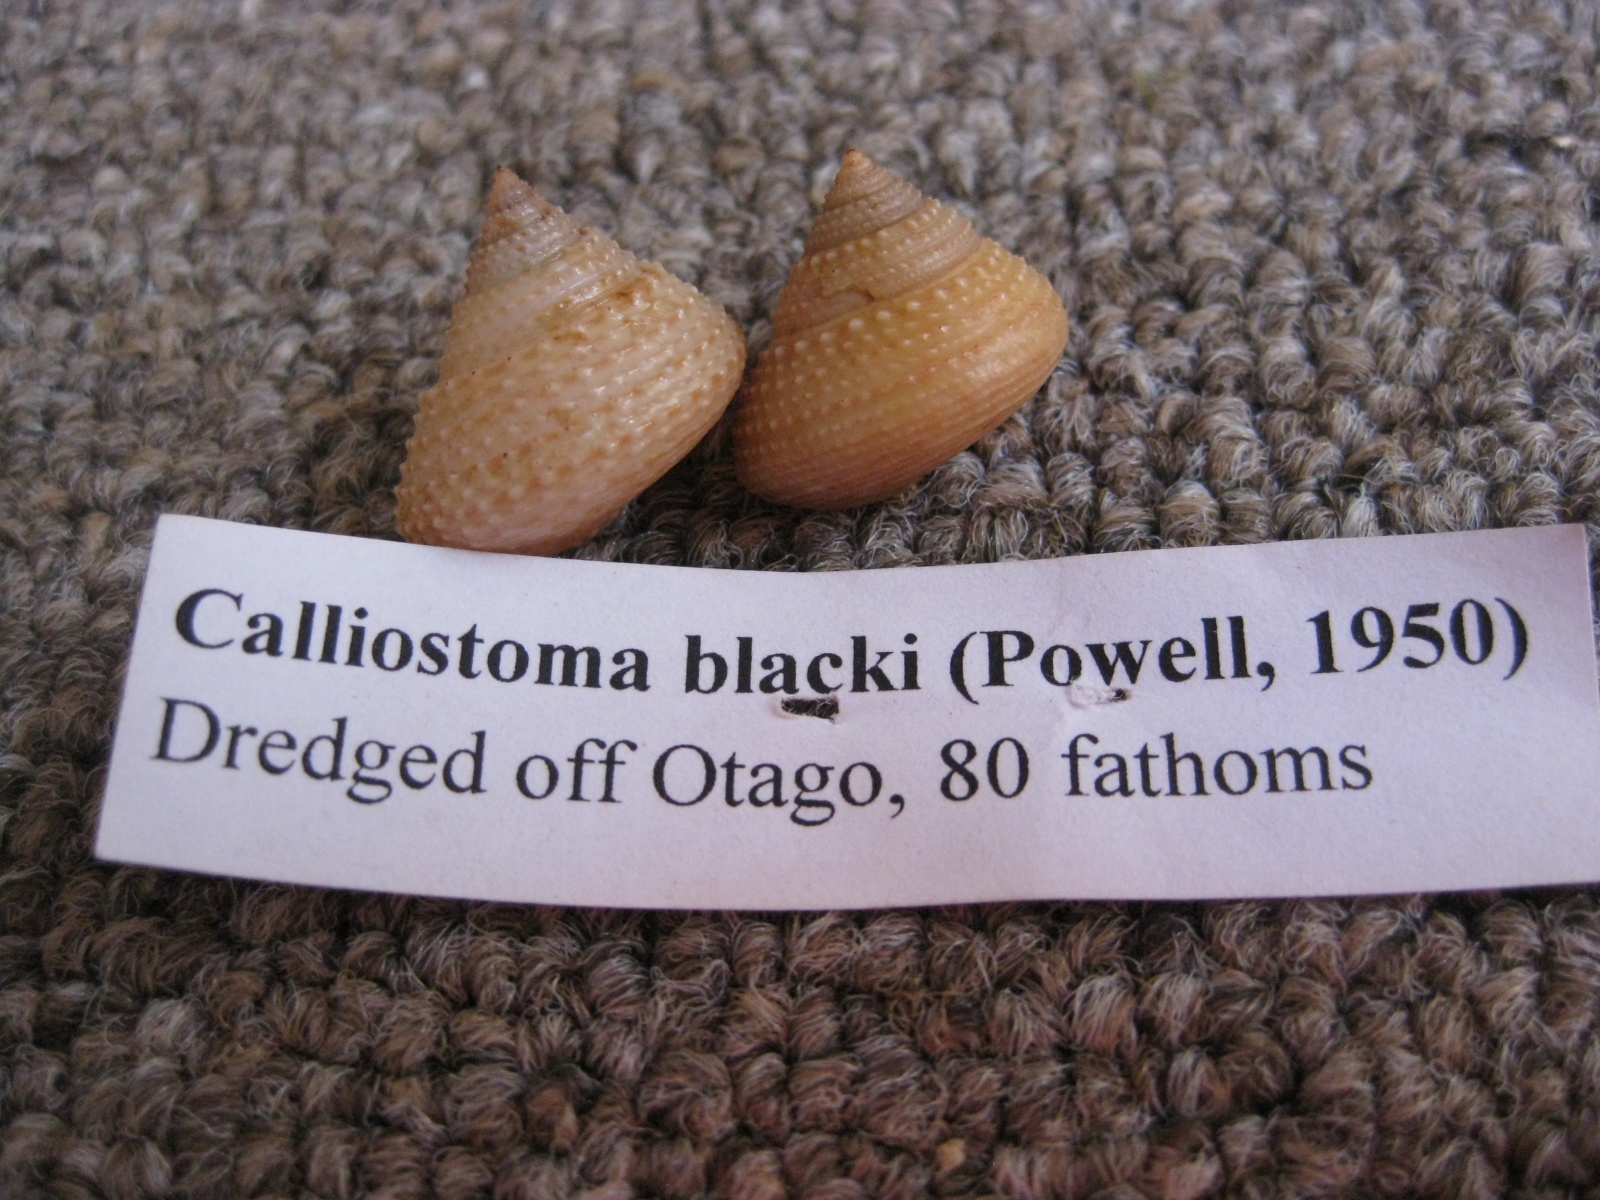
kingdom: Animalia
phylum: Mollusca
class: Gastropoda
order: Trochida
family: Calliostomatidae
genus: Maurea
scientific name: Maurea blacki
